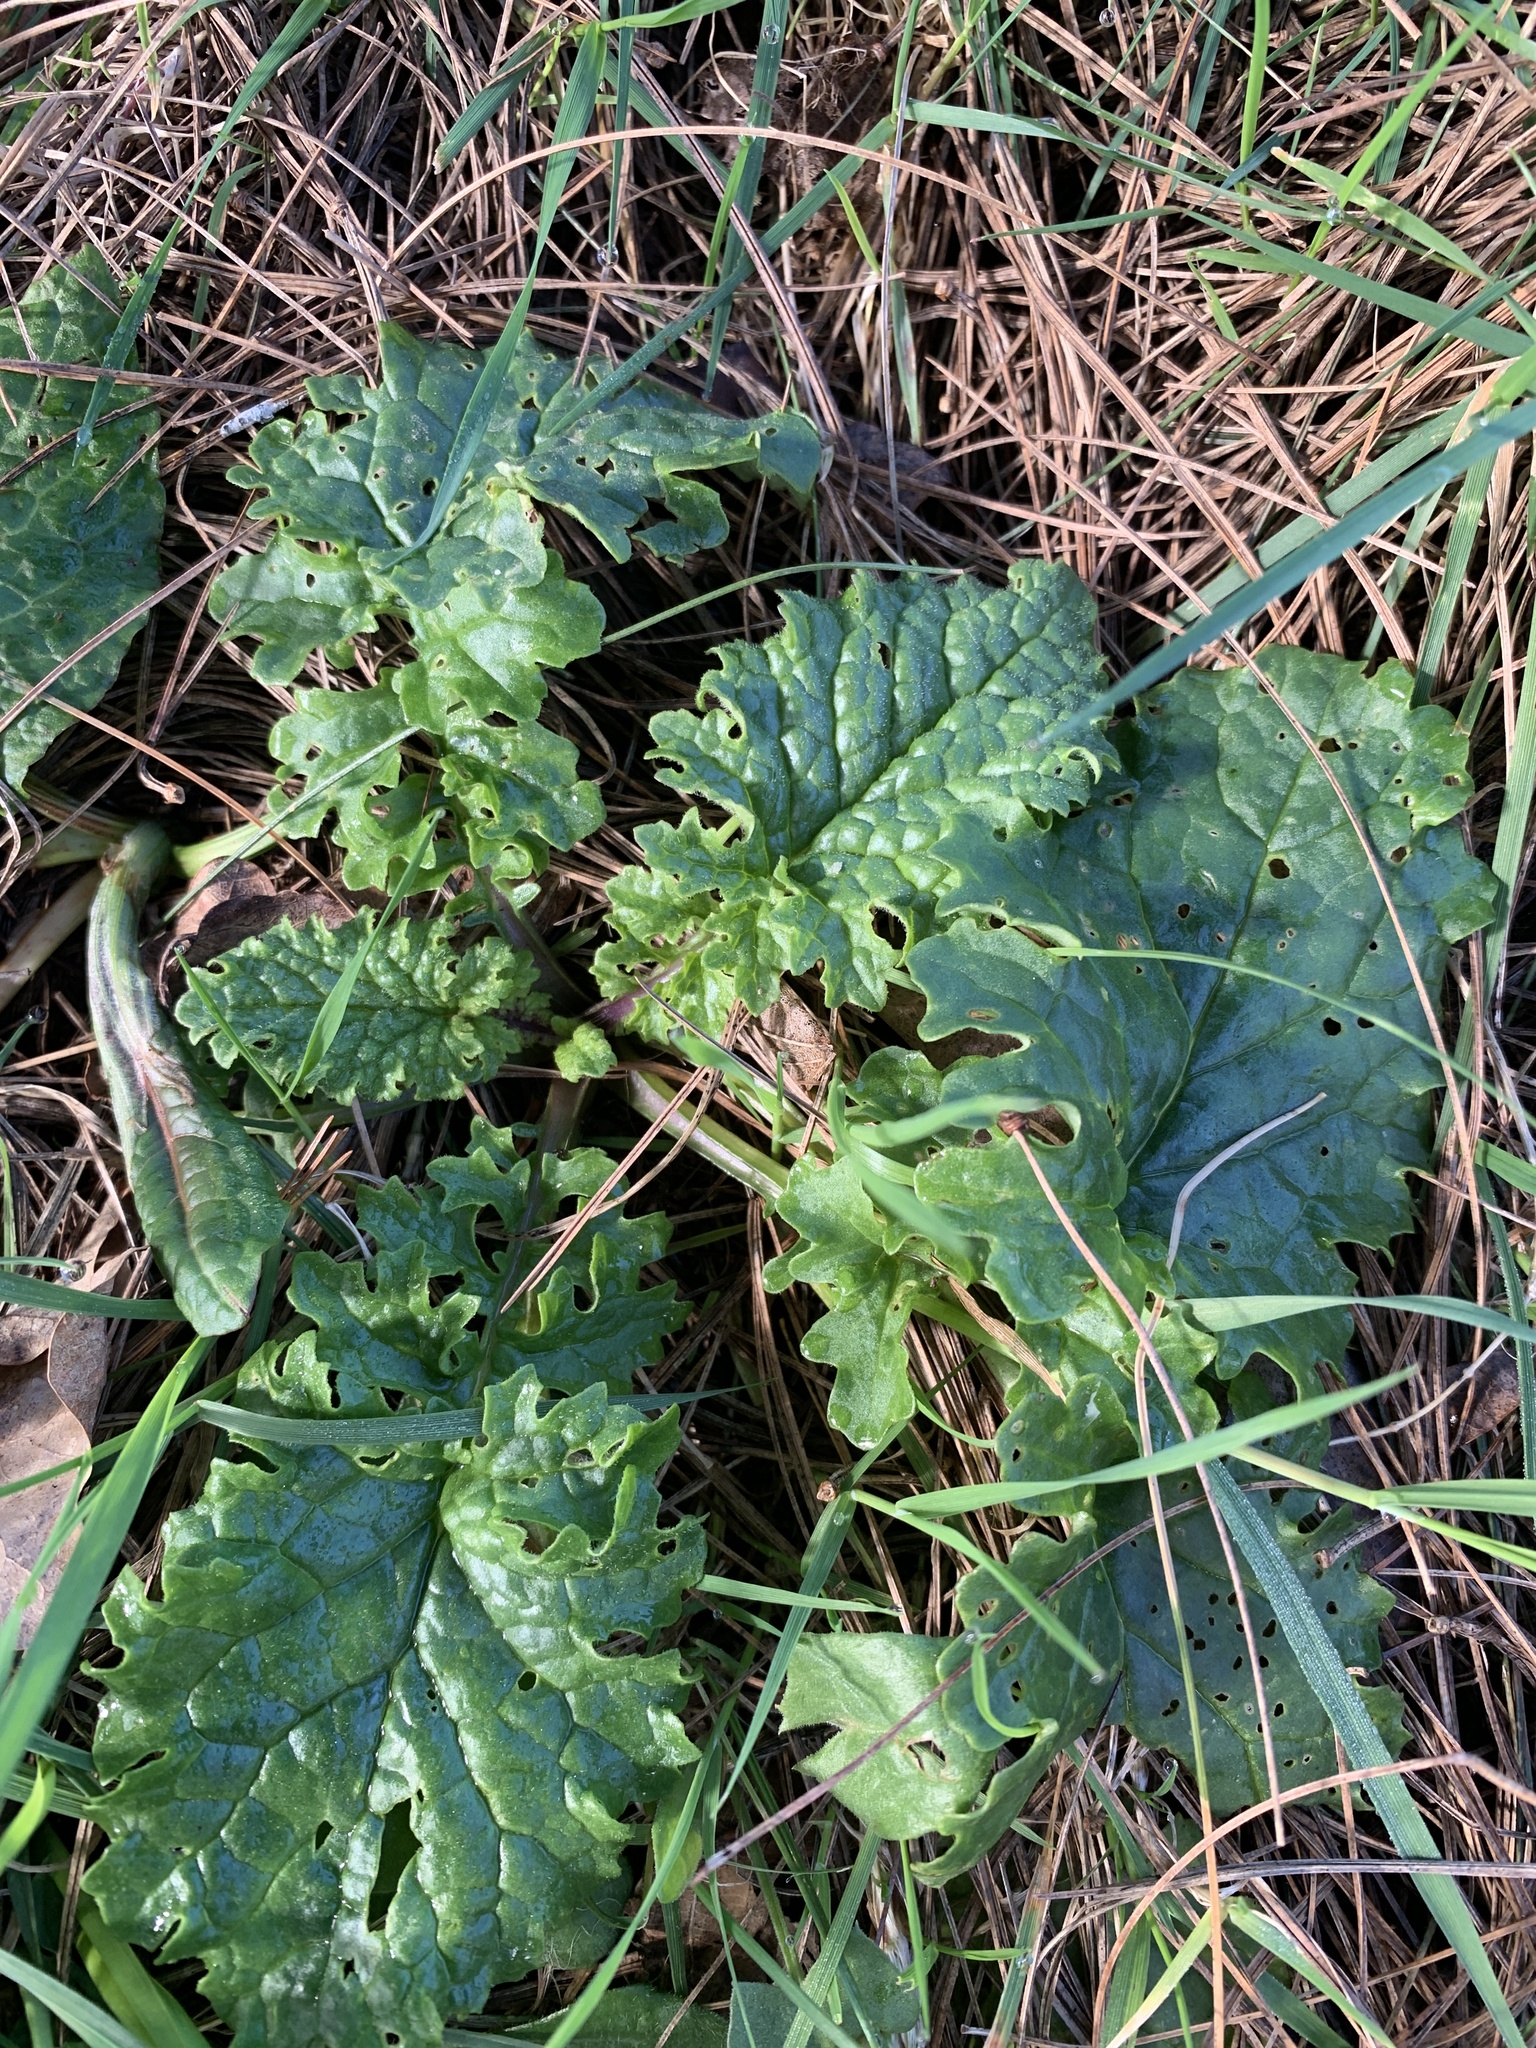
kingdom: Plantae
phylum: Tracheophyta
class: Magnoliopsida
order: Asterales
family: Asteraceae
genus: Jacobaea
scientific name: Jacobaea vulgaris
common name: Stinking willie
